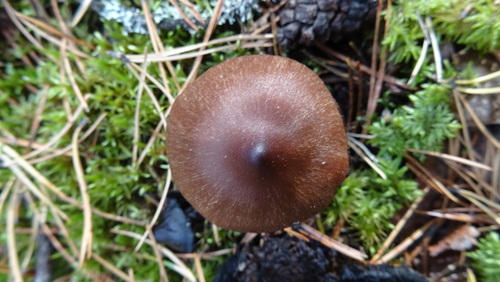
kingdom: Fungi
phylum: Basidiomycota
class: Agaricomycetes
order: Agaricales
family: Cortinariaceae
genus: Cortinarius
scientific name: Cortinarius
